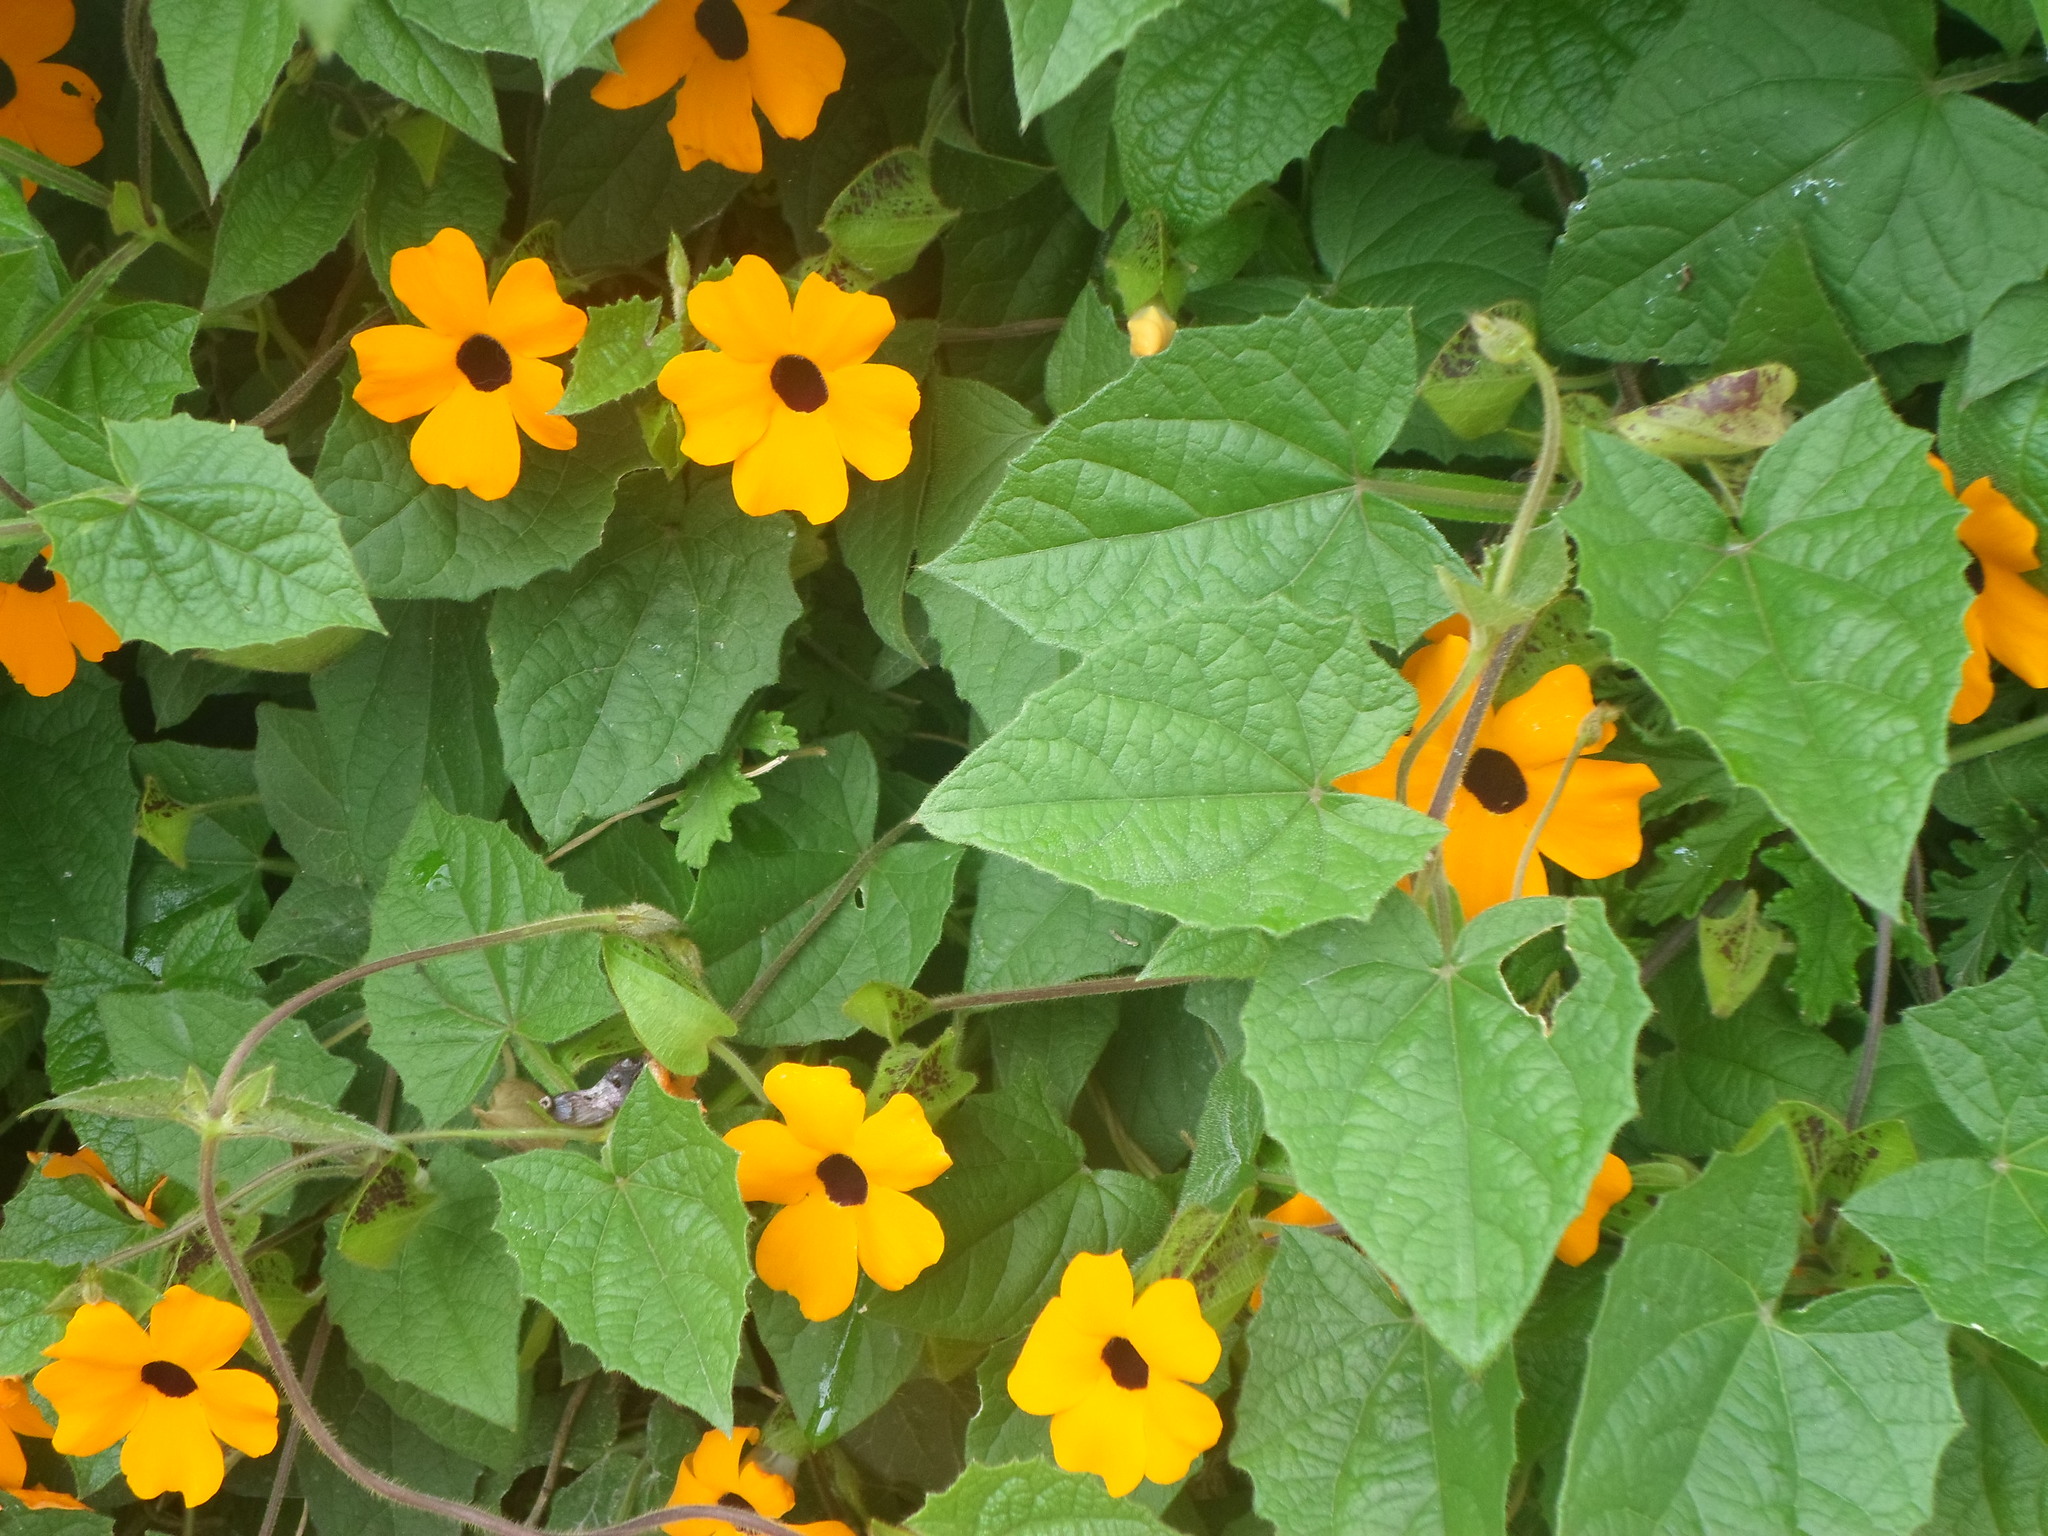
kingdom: Plantae
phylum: Tracheophyta
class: Magnoliopsida
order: Lamiales
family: Acanthaceae
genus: Thunbergia
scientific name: Thunbergia alata
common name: Blackeyed susan vine
